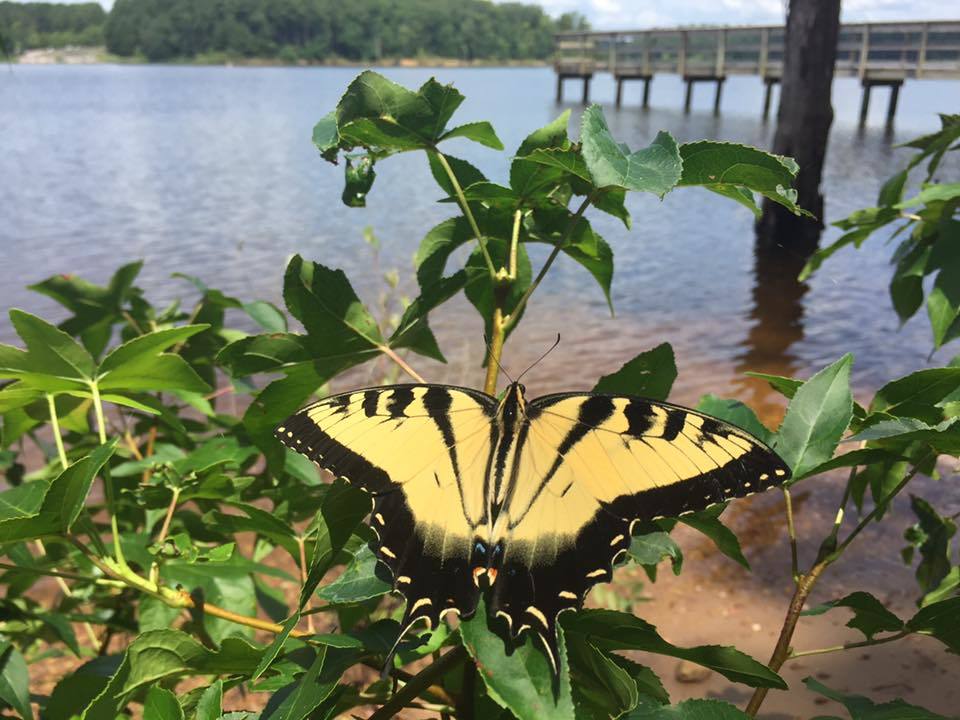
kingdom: Animalia
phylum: Arthropoda
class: Insecta
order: Lepidoptera
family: Papilionidae
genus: Papilio
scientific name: Papilio glaucus
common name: Tiger swallowtail
